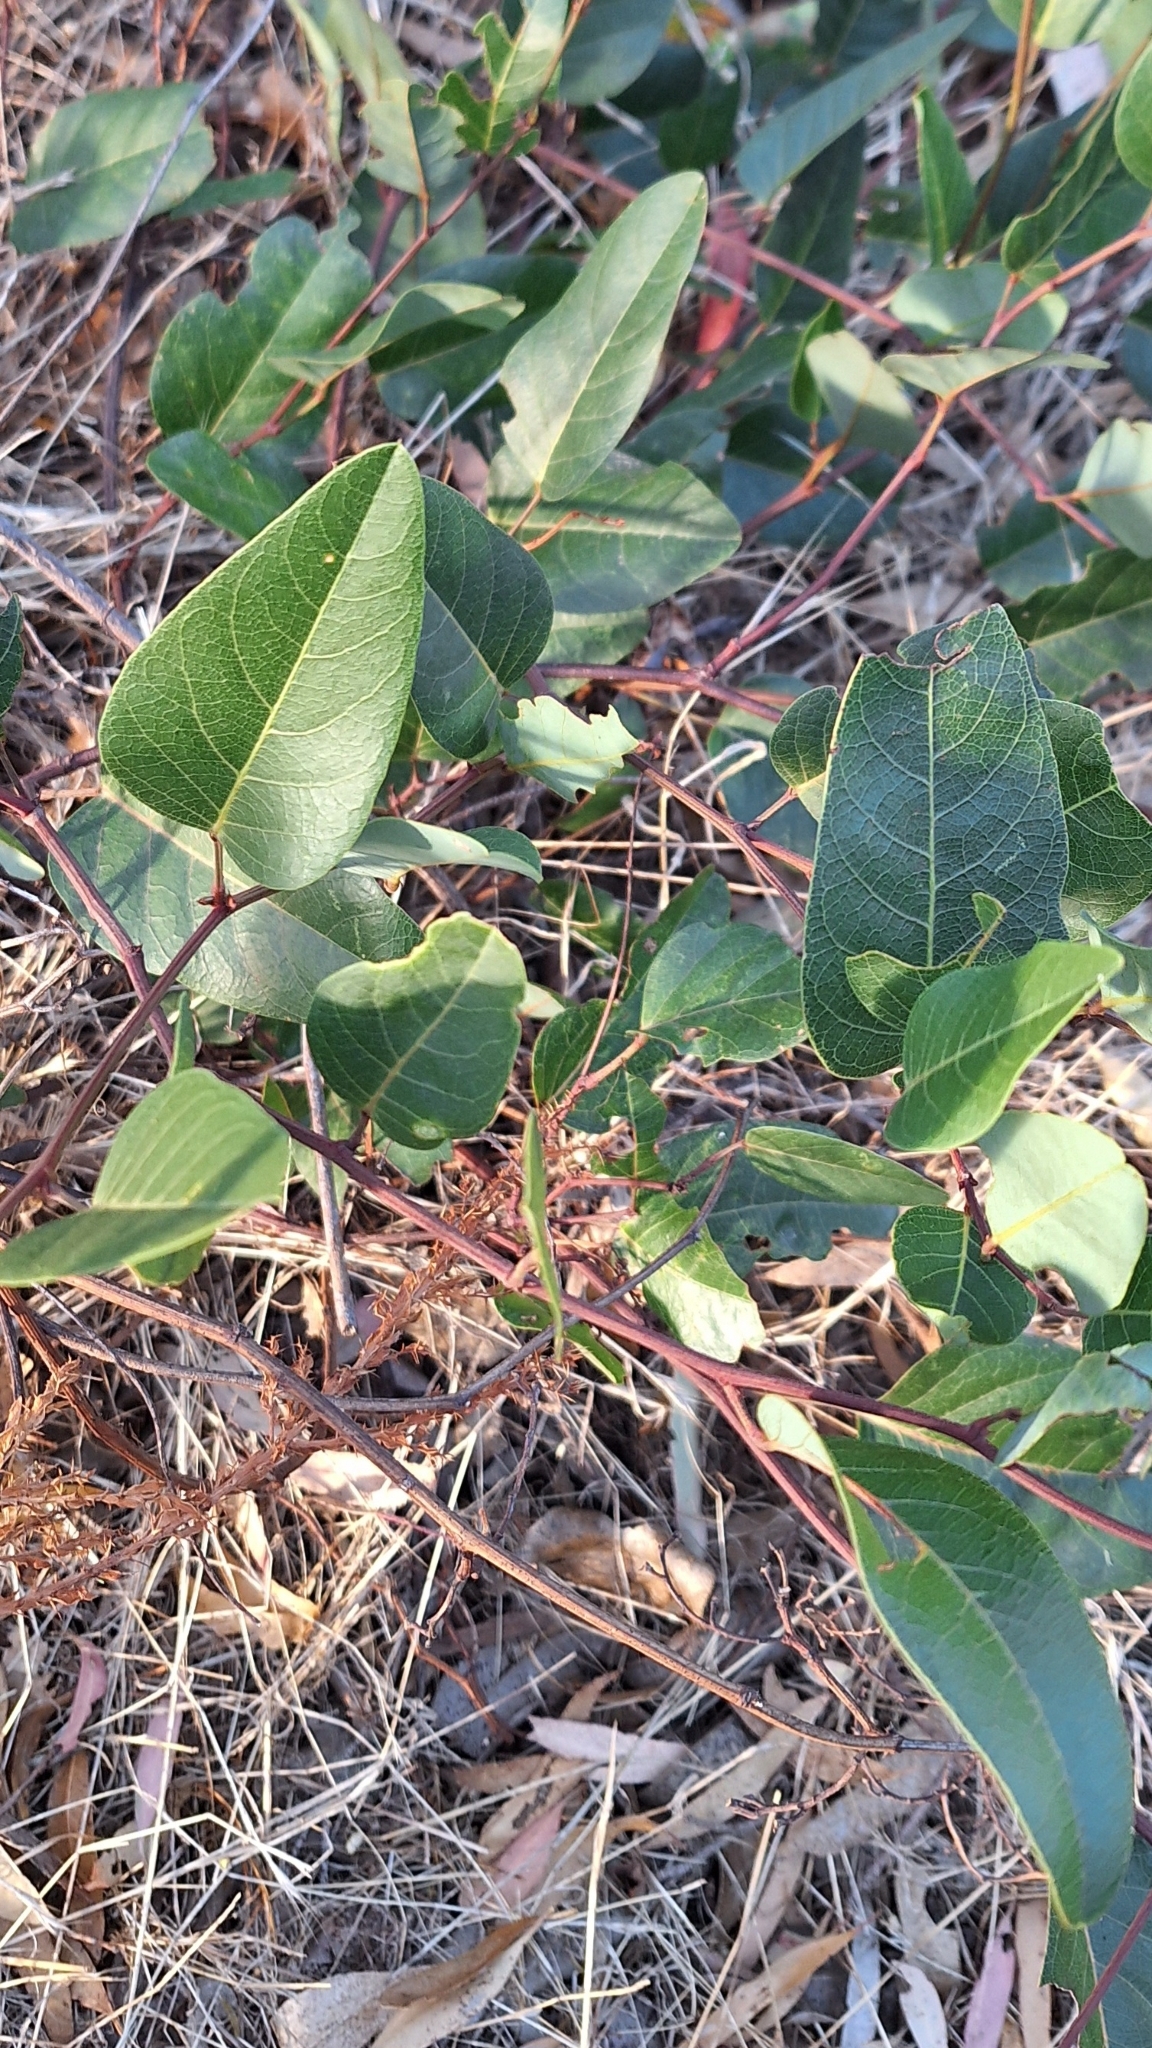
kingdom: Plantae
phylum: Tracheophyta
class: Magnoliopsida
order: Fabales
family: Fabaceae
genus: Hardenbergia
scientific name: Hardenbergia violacea
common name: Coral-pea
